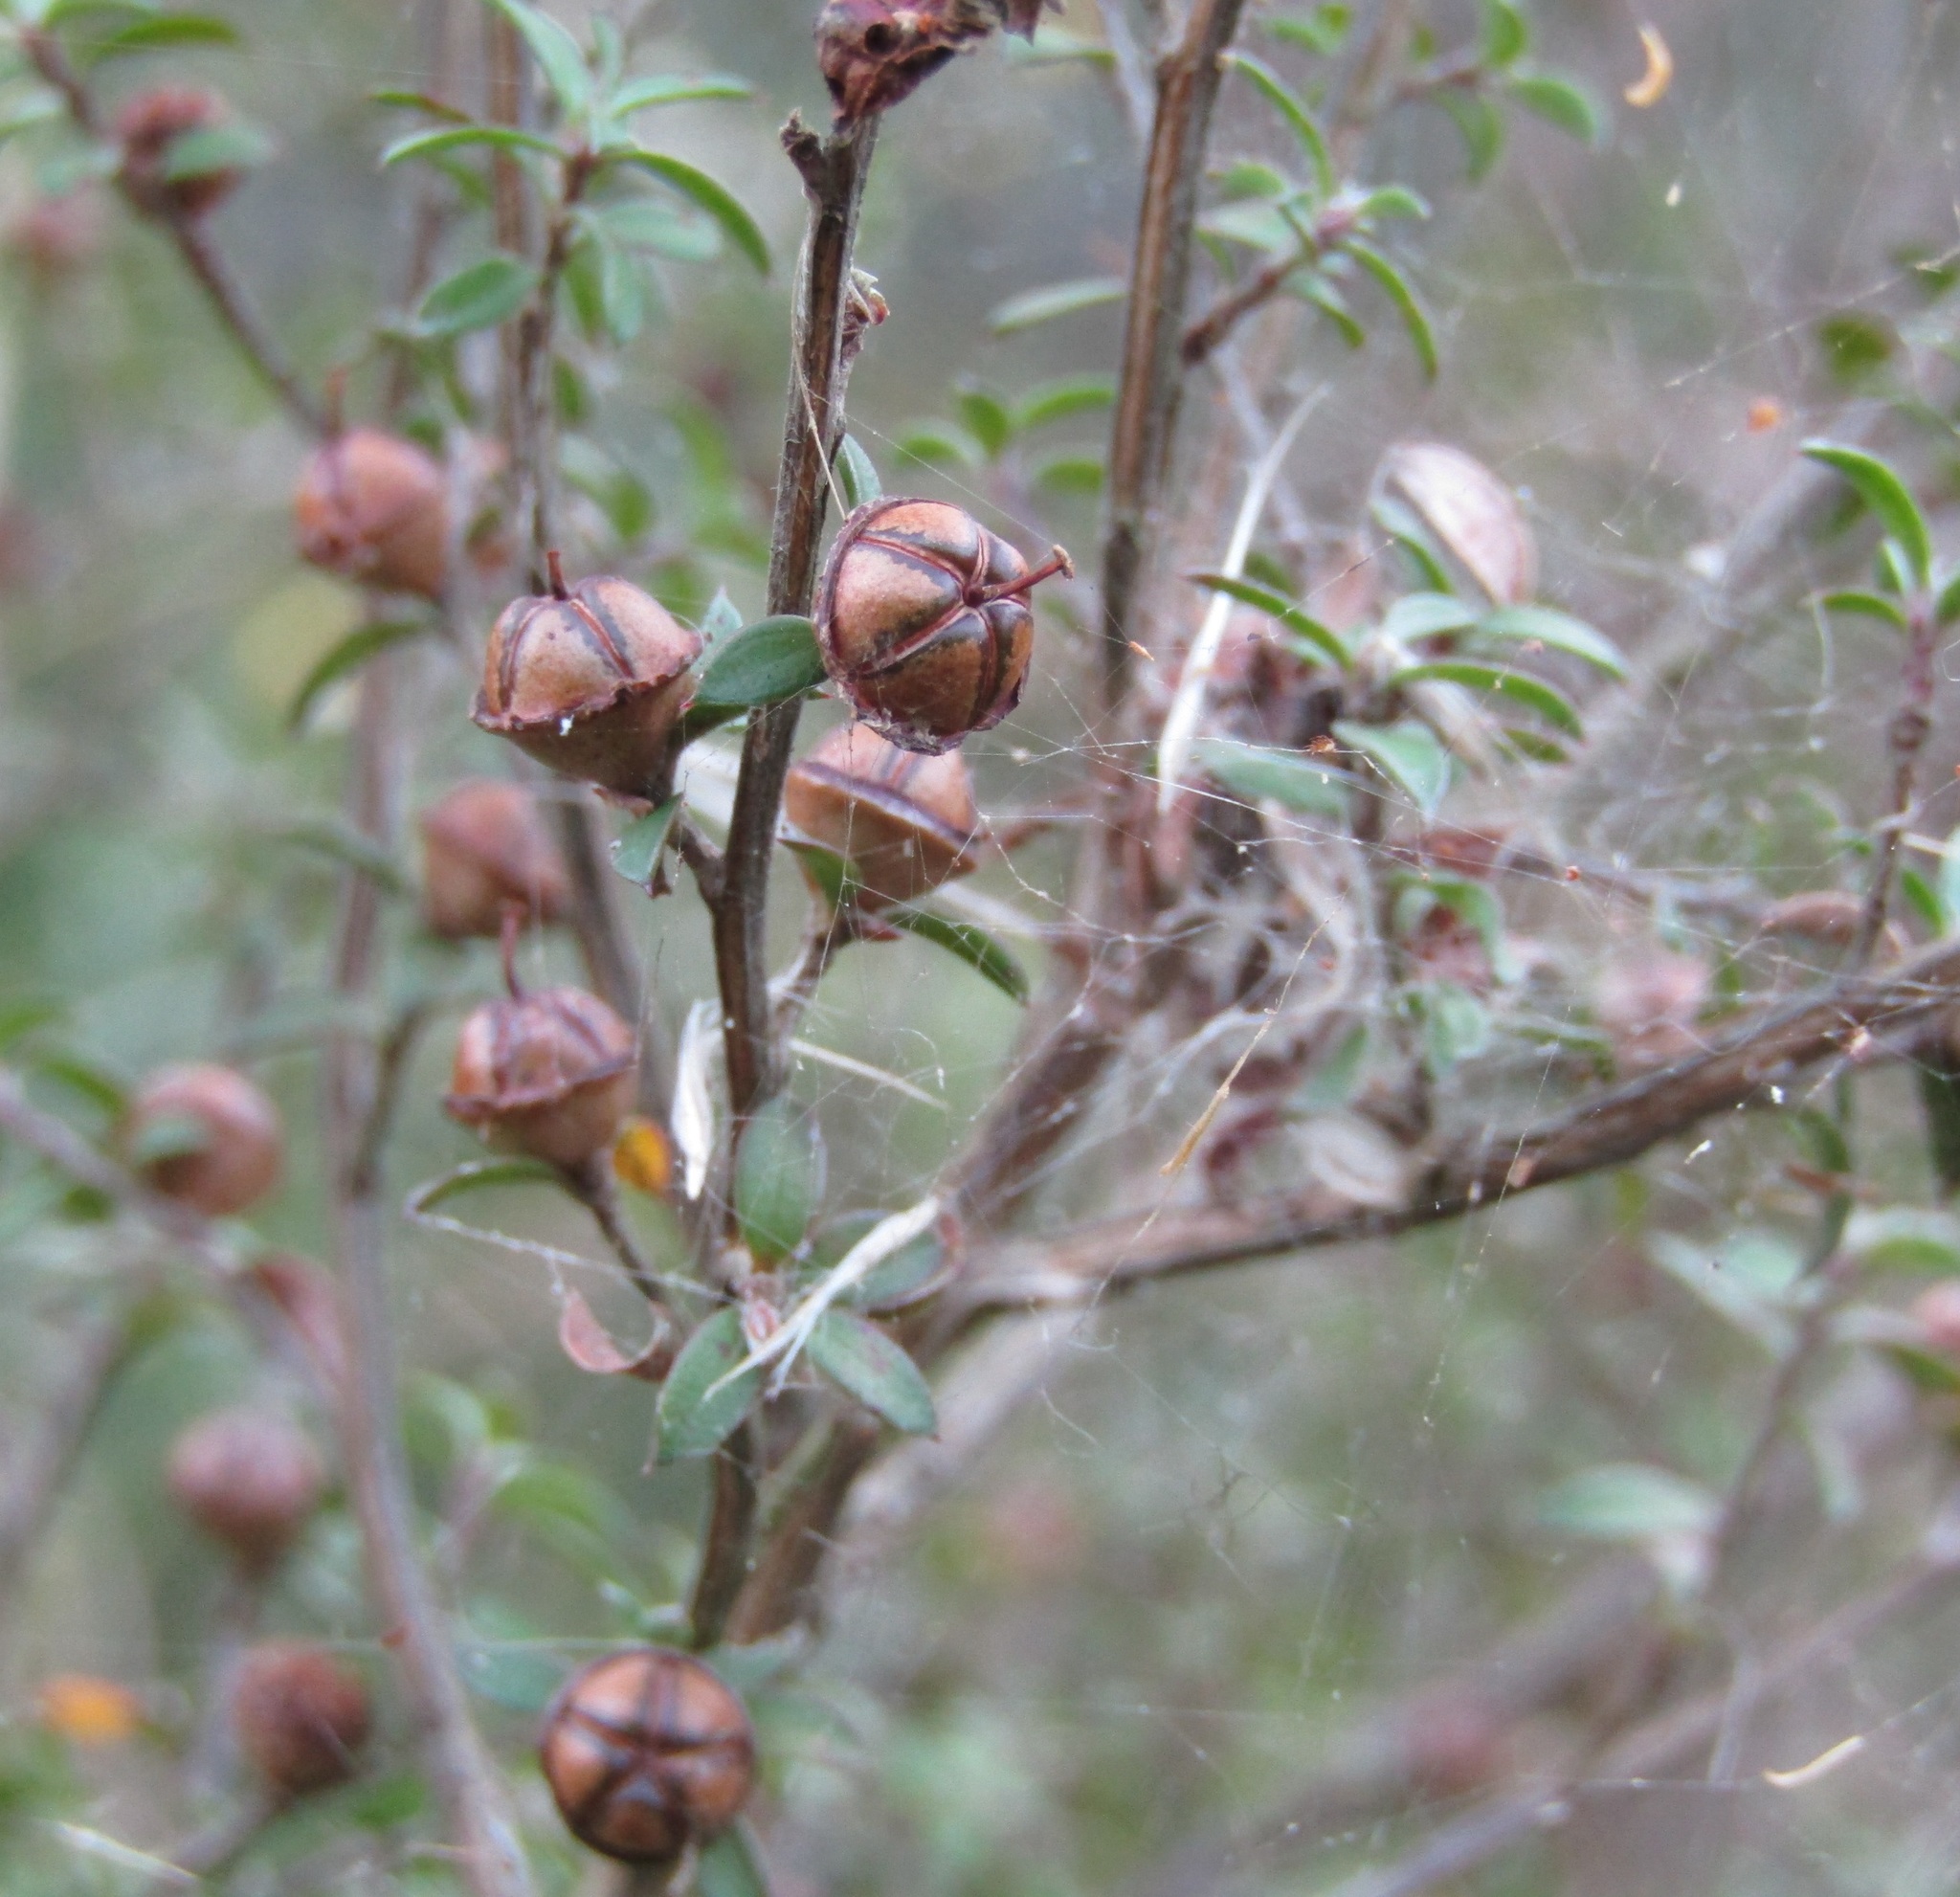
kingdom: Plantae
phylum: Tracheophyta
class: Magnoliopsida
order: Myrtales
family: Myrtaceae
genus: Leptospermum
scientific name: Leptospermum scoparium
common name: Broom tea-tree
